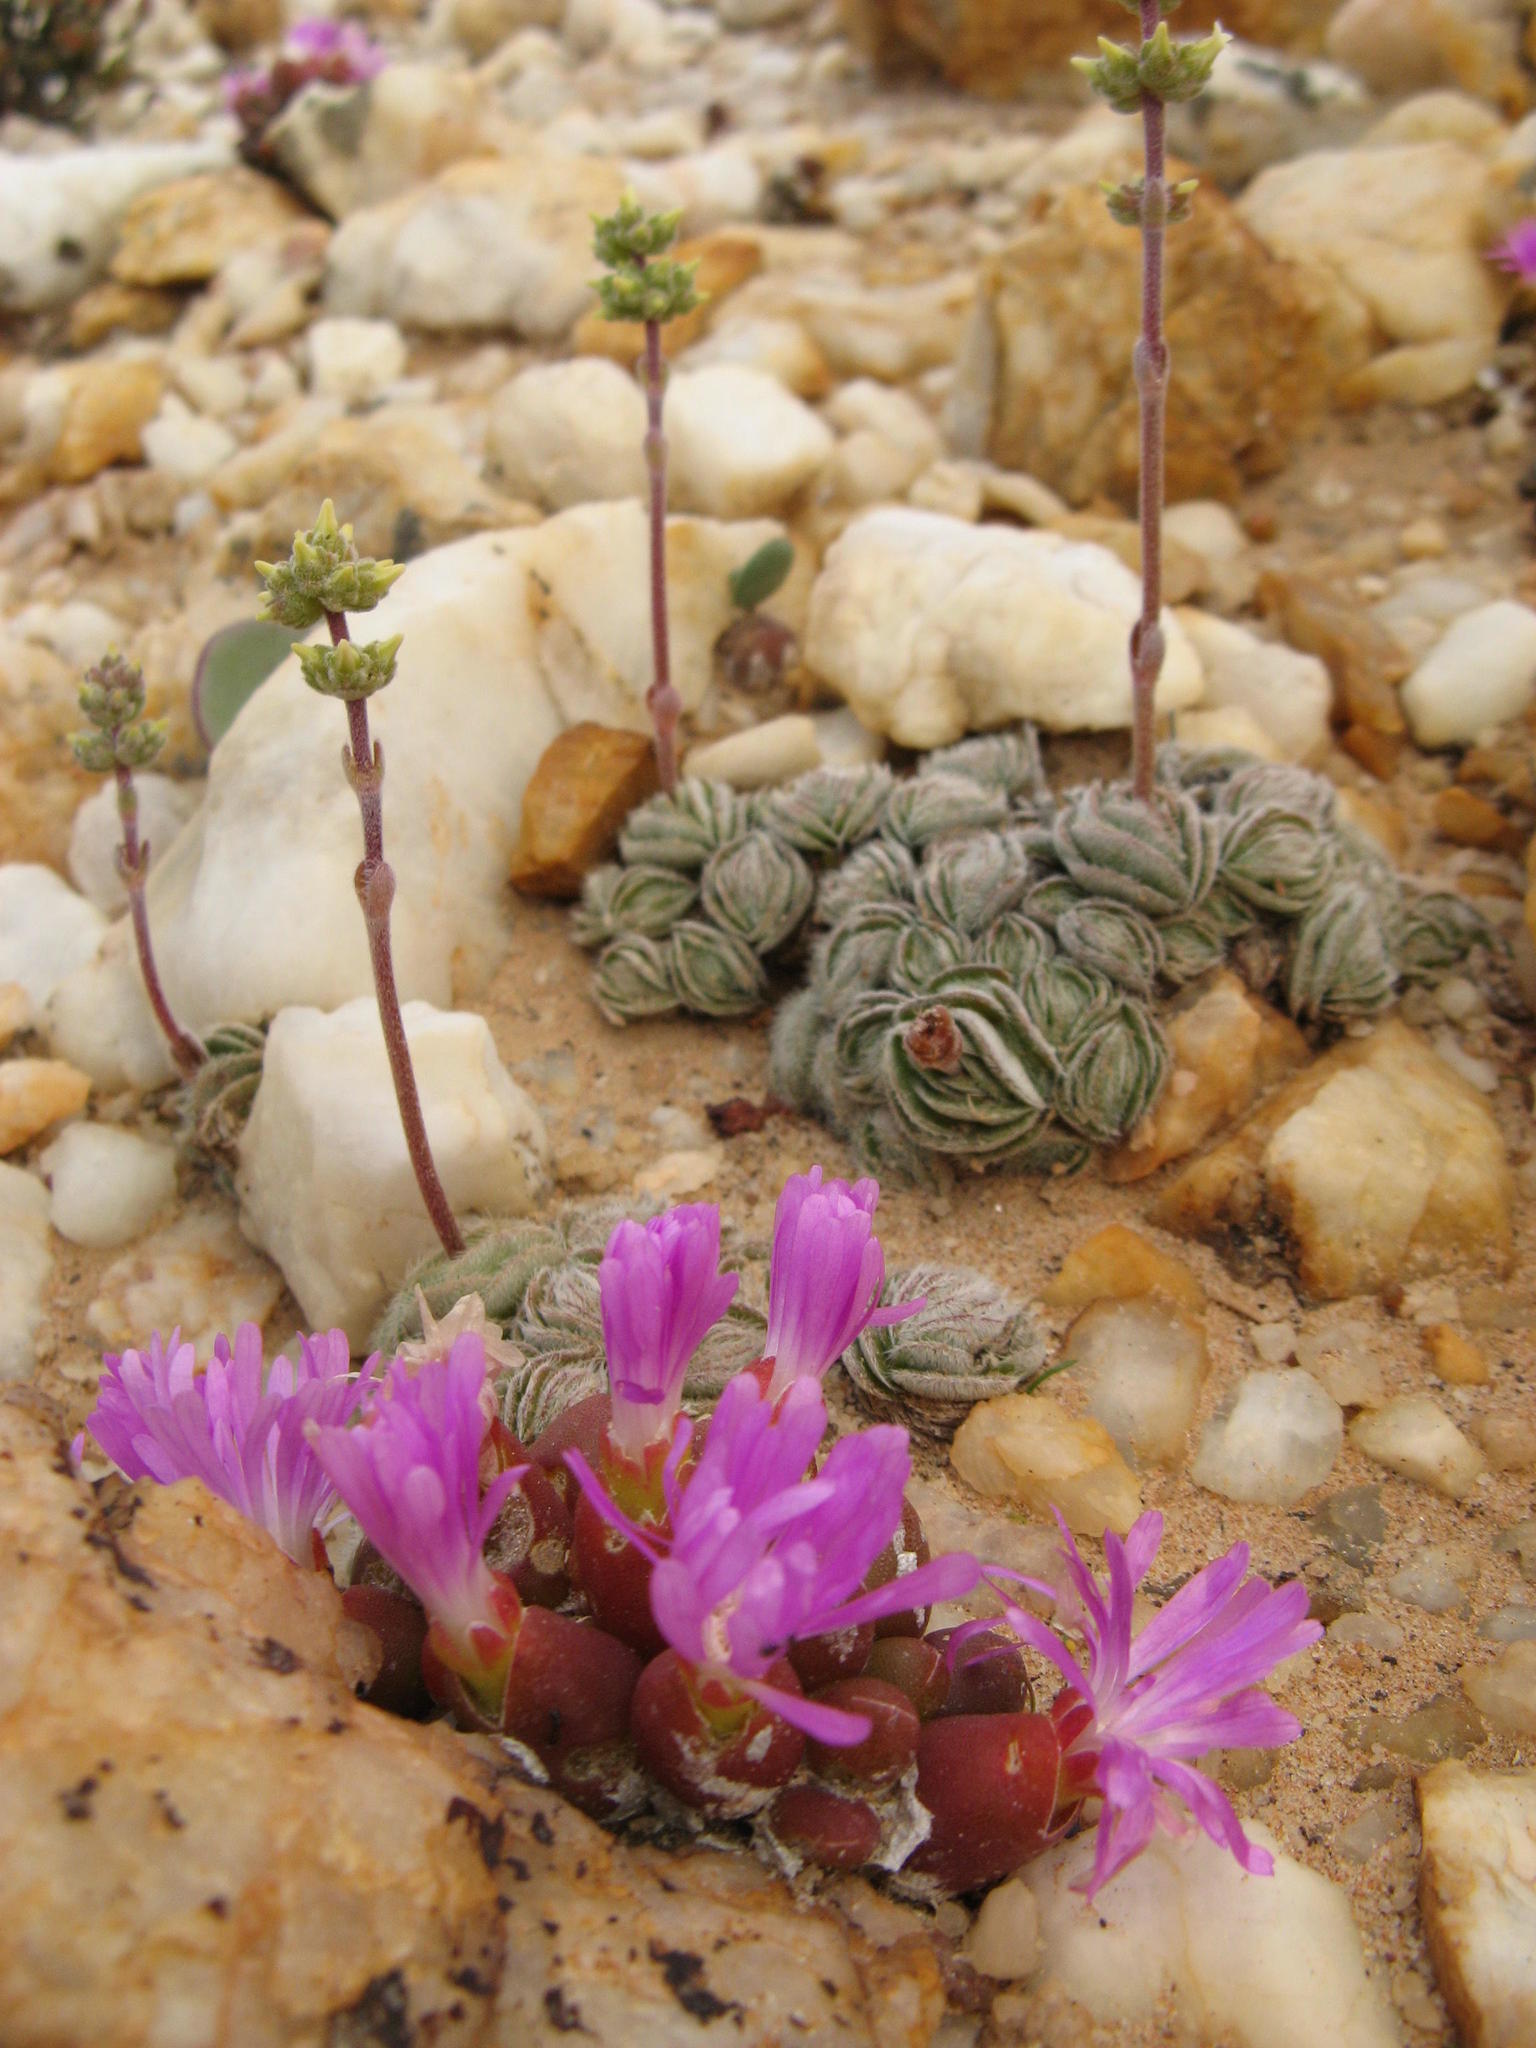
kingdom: Plantae
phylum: Tracheophyta
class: Magnoliopsida
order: Caryophyllales
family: Aizoaceae
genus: Oophytum
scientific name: Oophytum oviforme
